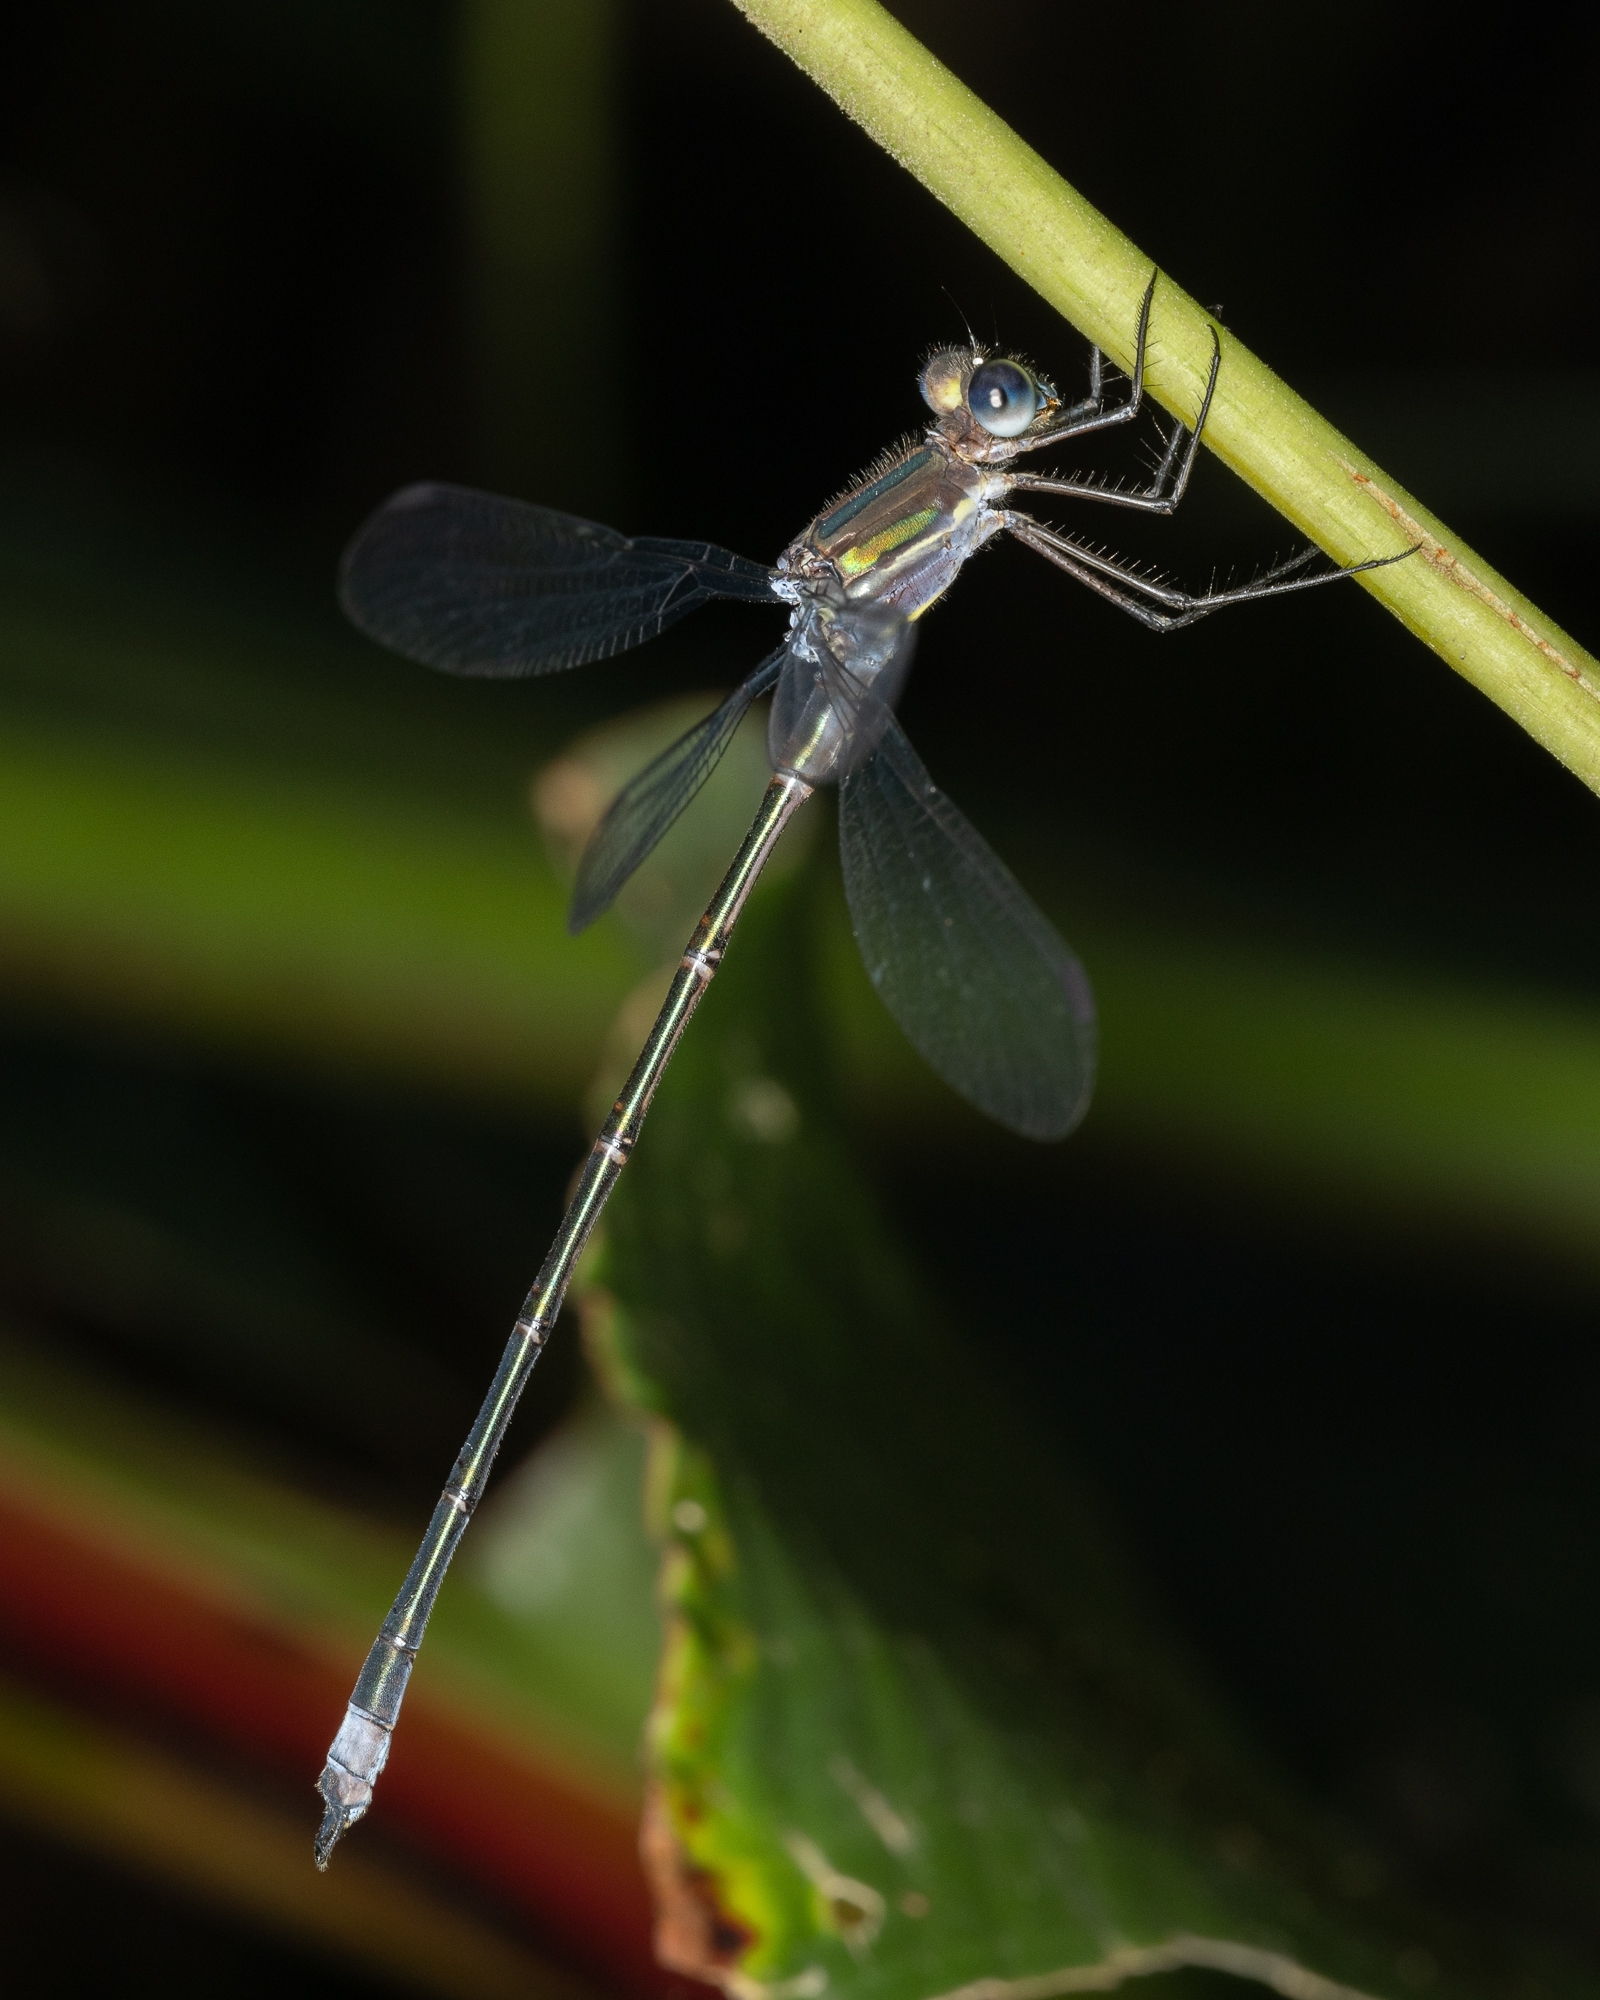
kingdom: Animalia
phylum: Arthropoda
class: Insecta
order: Odonata
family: Lestidae
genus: Archilestes
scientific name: Archilestes grandis
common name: Great spreadwing
